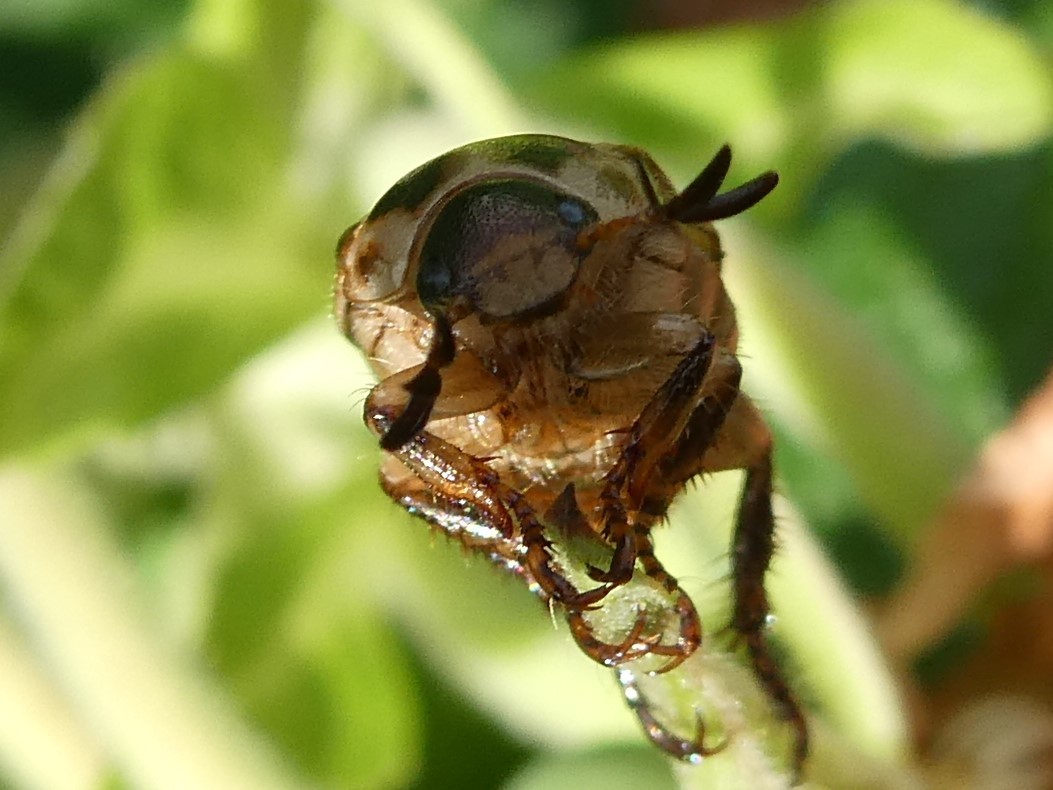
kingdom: Animalia
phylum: Arthropoda
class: Insecta
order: Coleoptera
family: Scarabaeidae
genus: Exomala
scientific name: Exomala orientalis
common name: Oriental beetle
